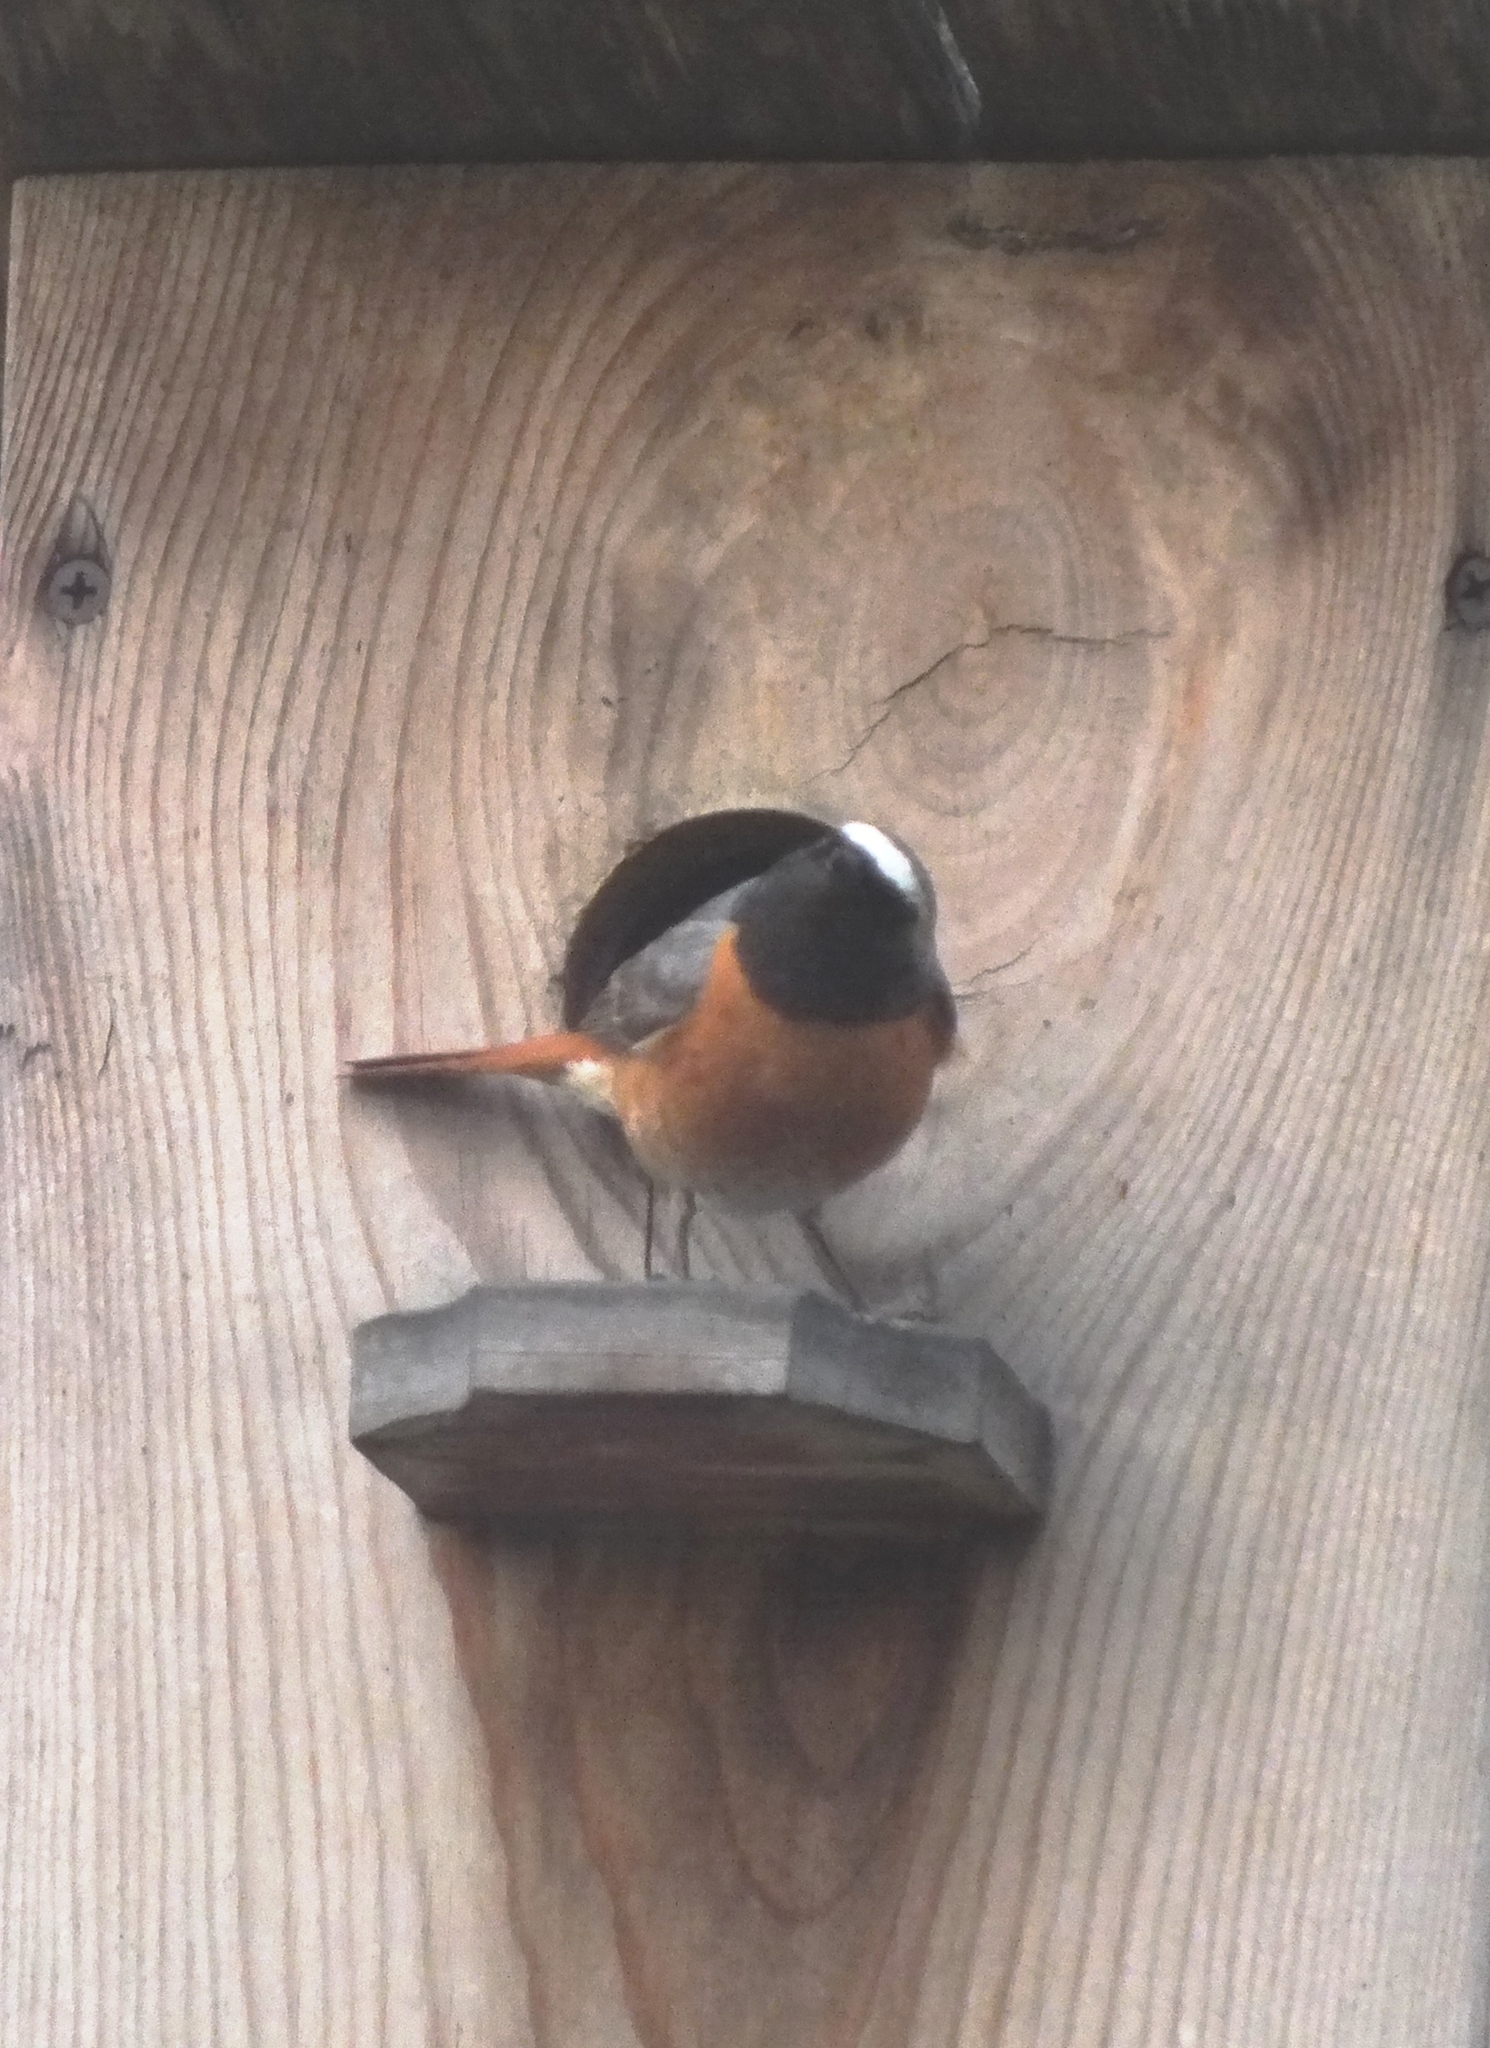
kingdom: Animalia
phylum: Chordata
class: Aves
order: Passeriformes
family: Muscicapidae
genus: Phoenicurus
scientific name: Phoenicurus phoenicurus
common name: Common redstart
